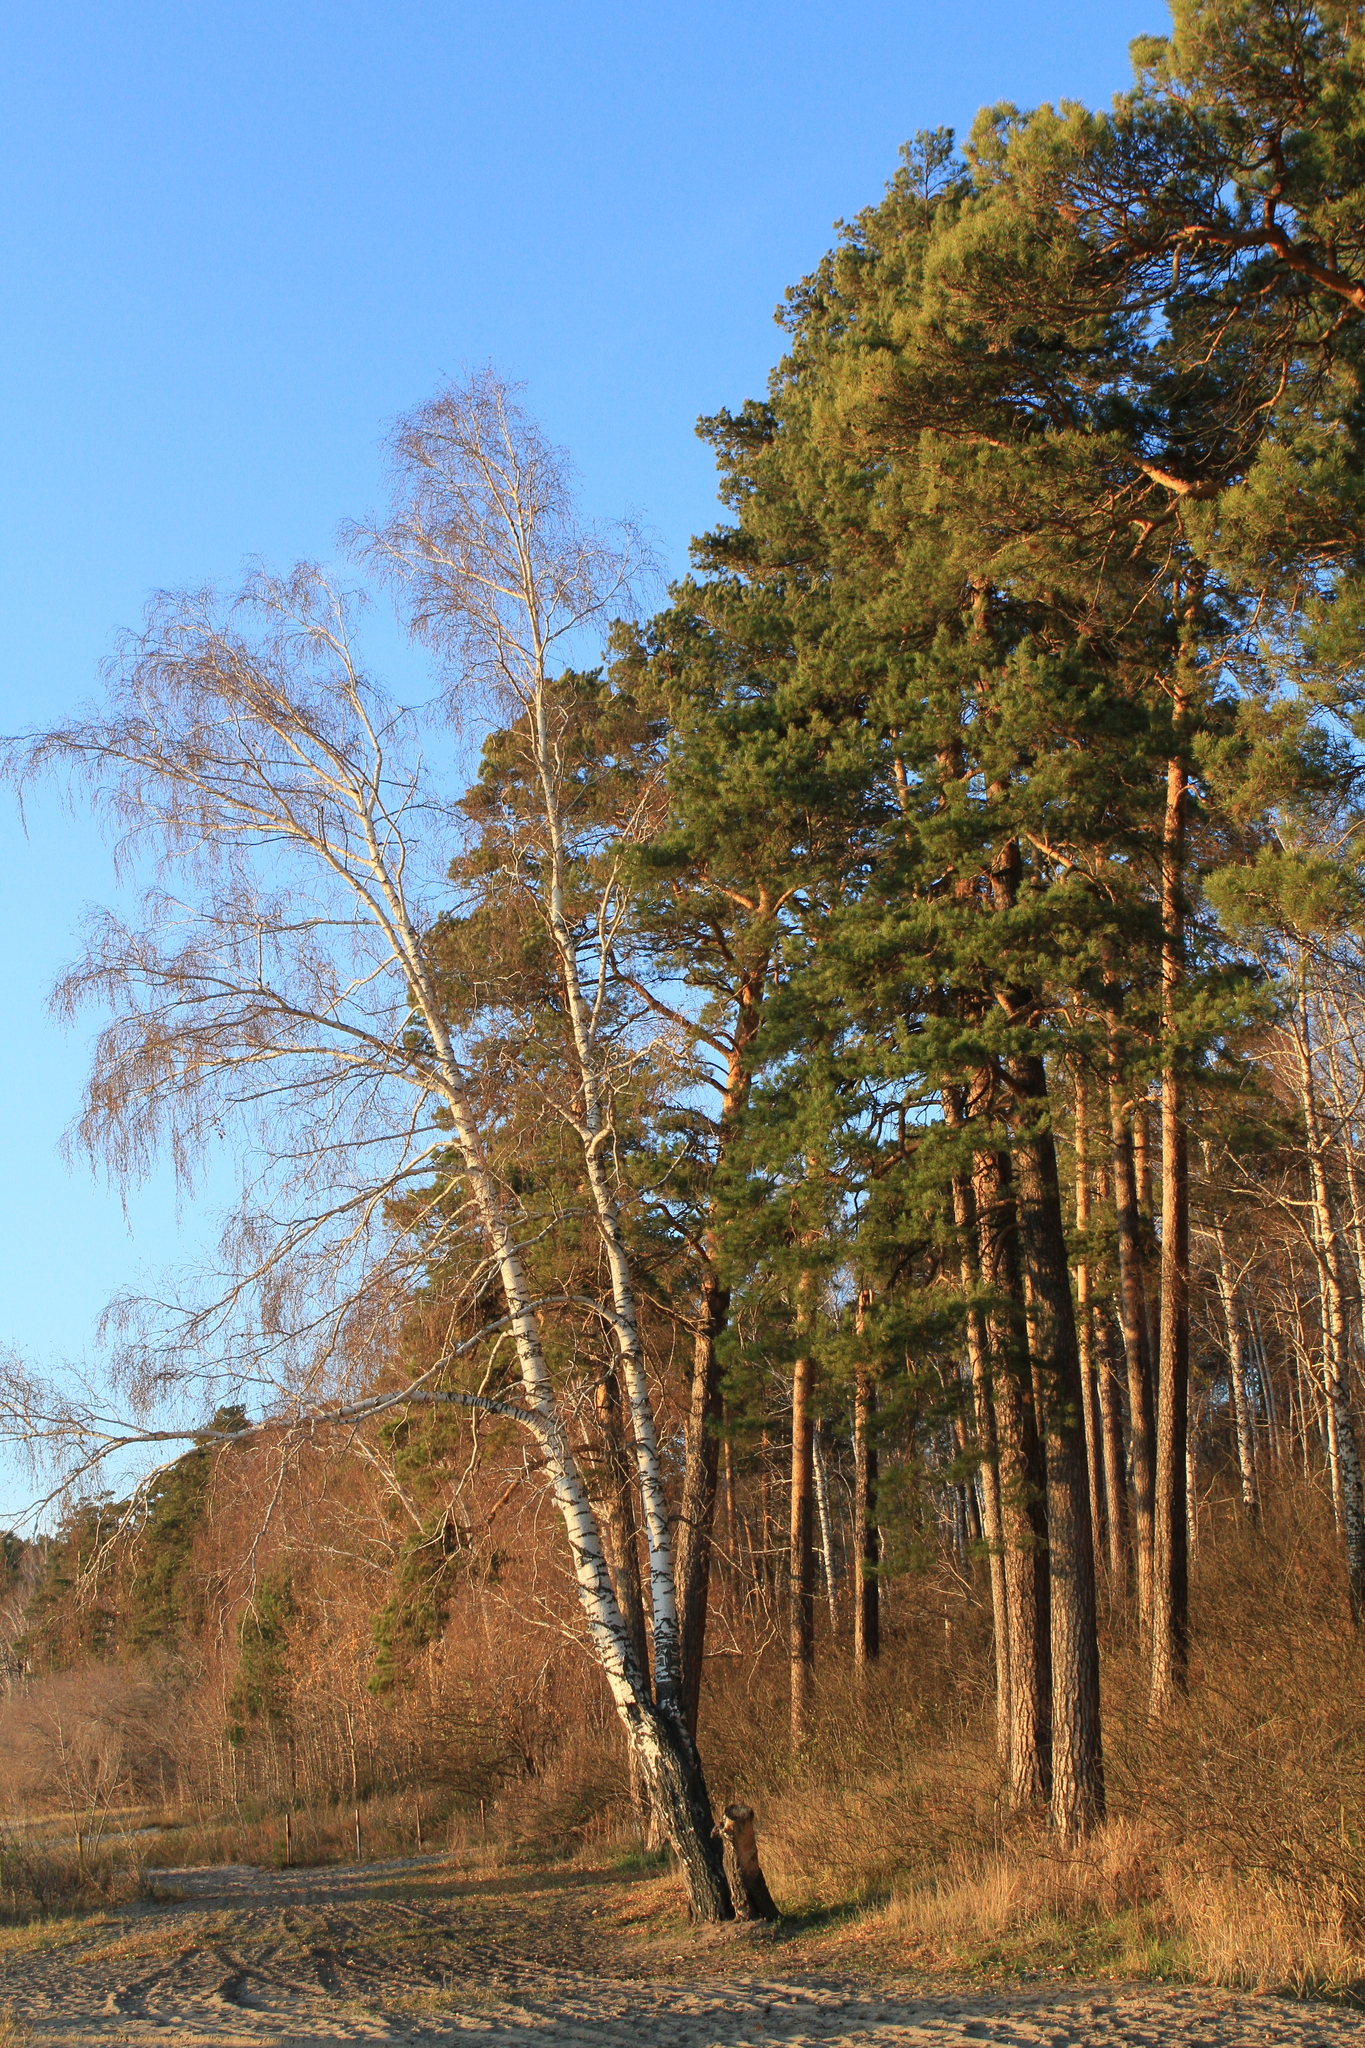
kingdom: Plantae
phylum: Tracheophyta
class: Pinopsida
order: Pinales
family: Pinaceae
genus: Pinus
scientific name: Pinus sylvestris
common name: Scots pine
